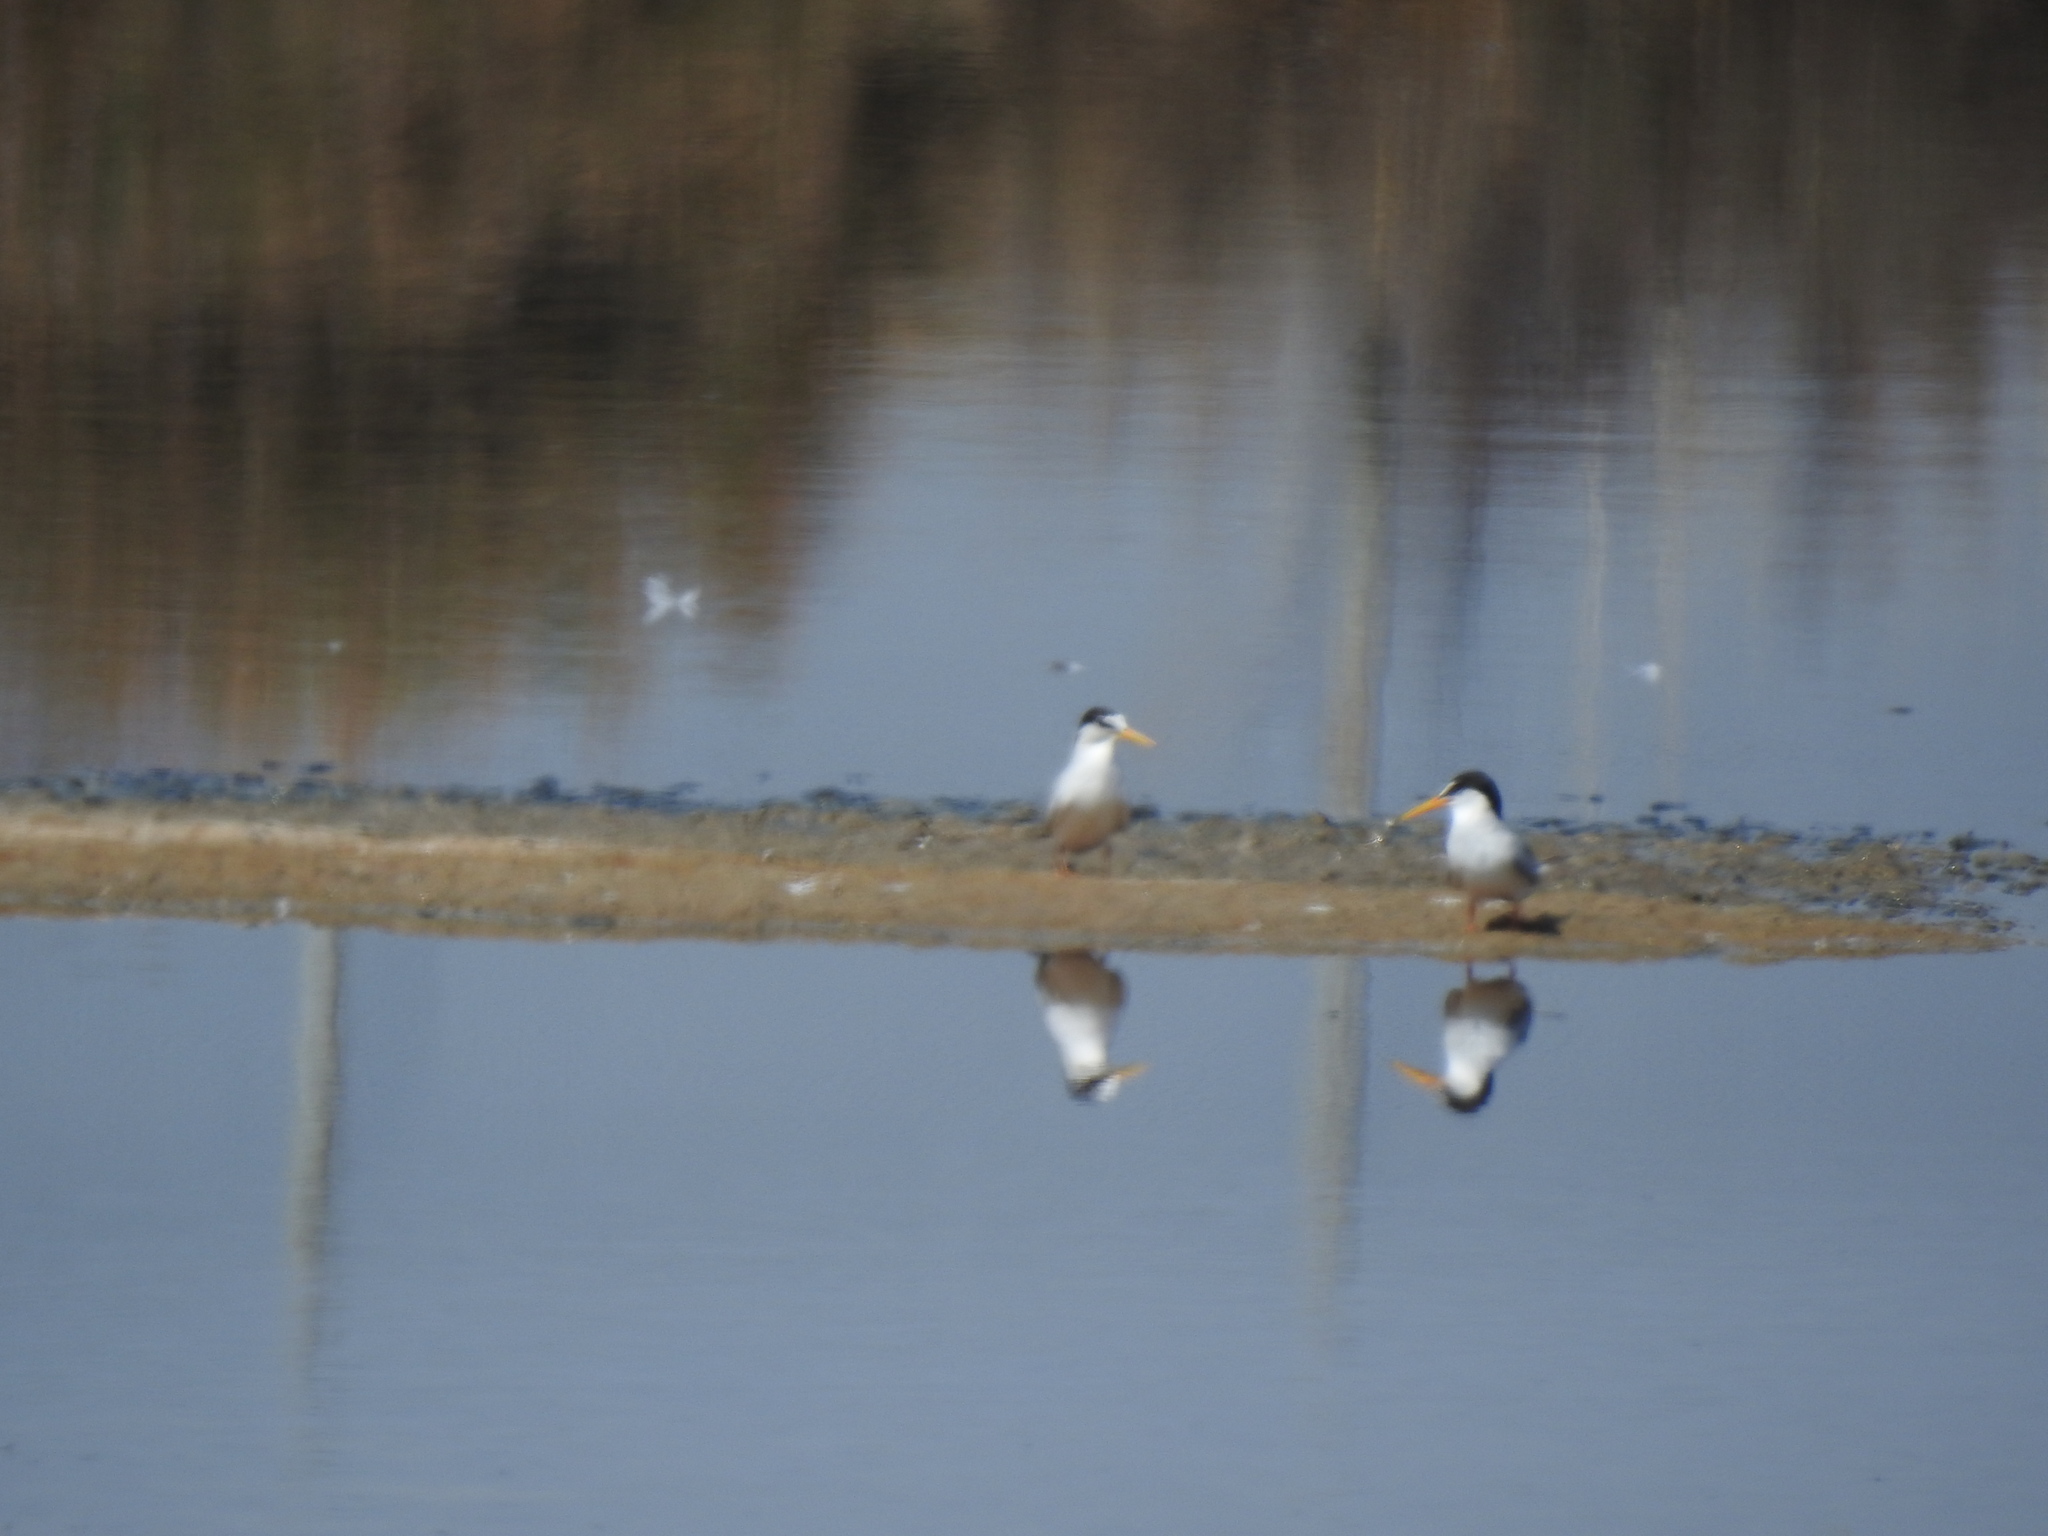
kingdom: Animalia
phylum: Chordata
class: Aves
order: Charadriiformes
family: Laridae
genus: Sternula
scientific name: Sternula albifrons
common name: Little tern
